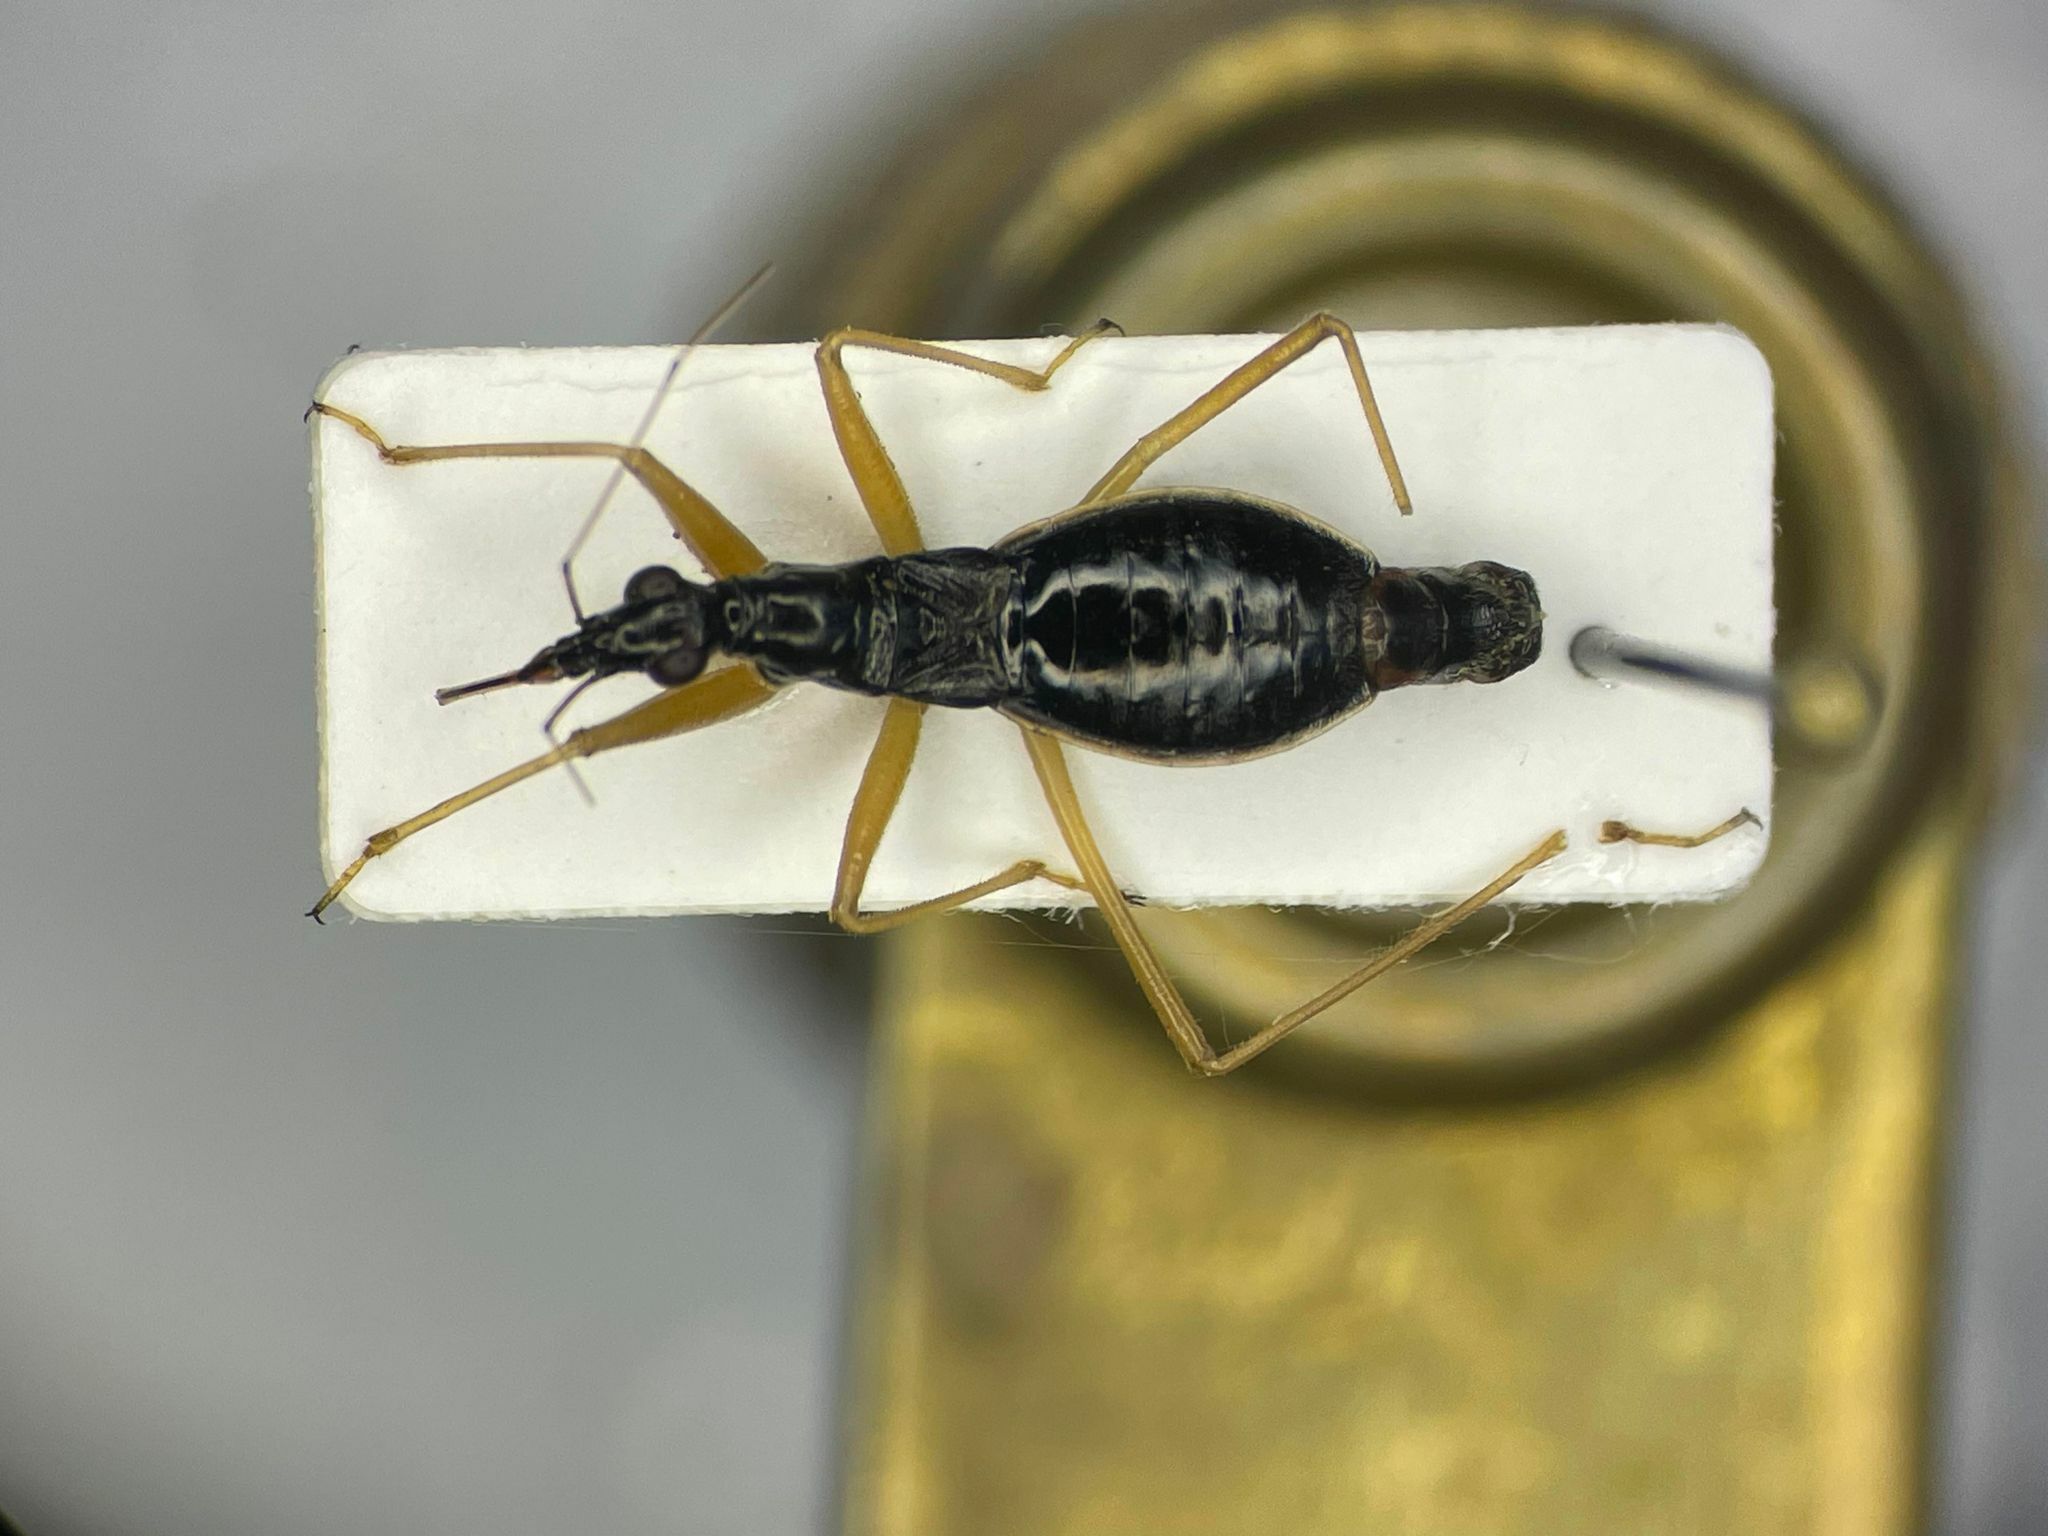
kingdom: Animalia
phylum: Arthropoda
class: Insecta
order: Hemiptera
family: Nabidae
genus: Nabis
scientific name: Nabis
